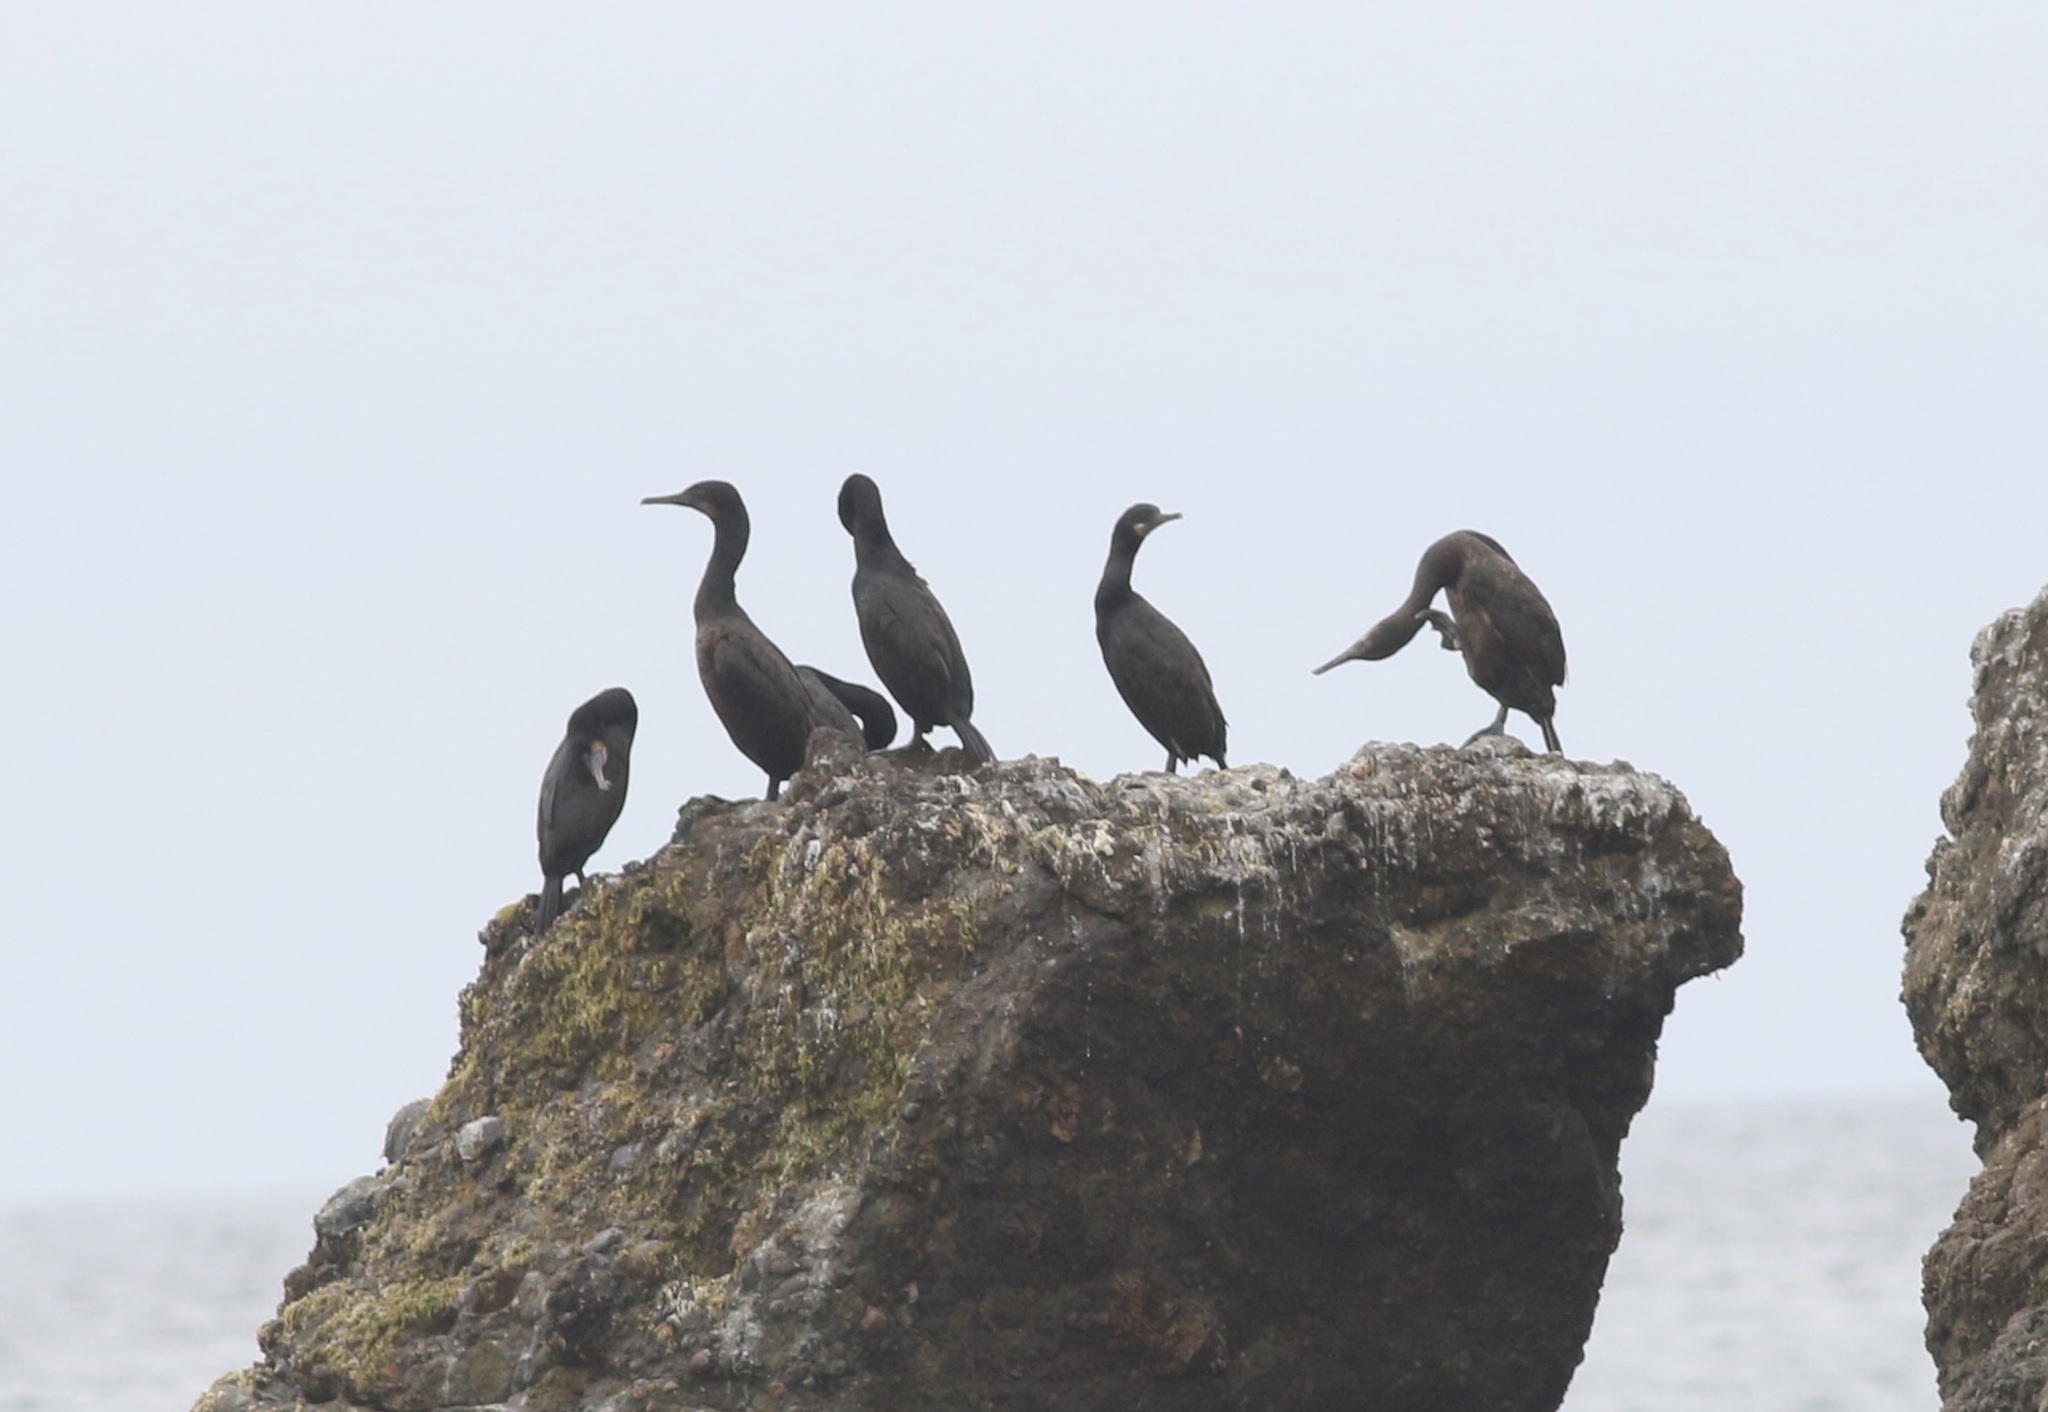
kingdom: Animalia
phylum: Chordata
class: Aves
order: Suliformes
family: Phalacrocoracidae
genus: Urile
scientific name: Urile penicillatus
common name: Brandt's cormorant
